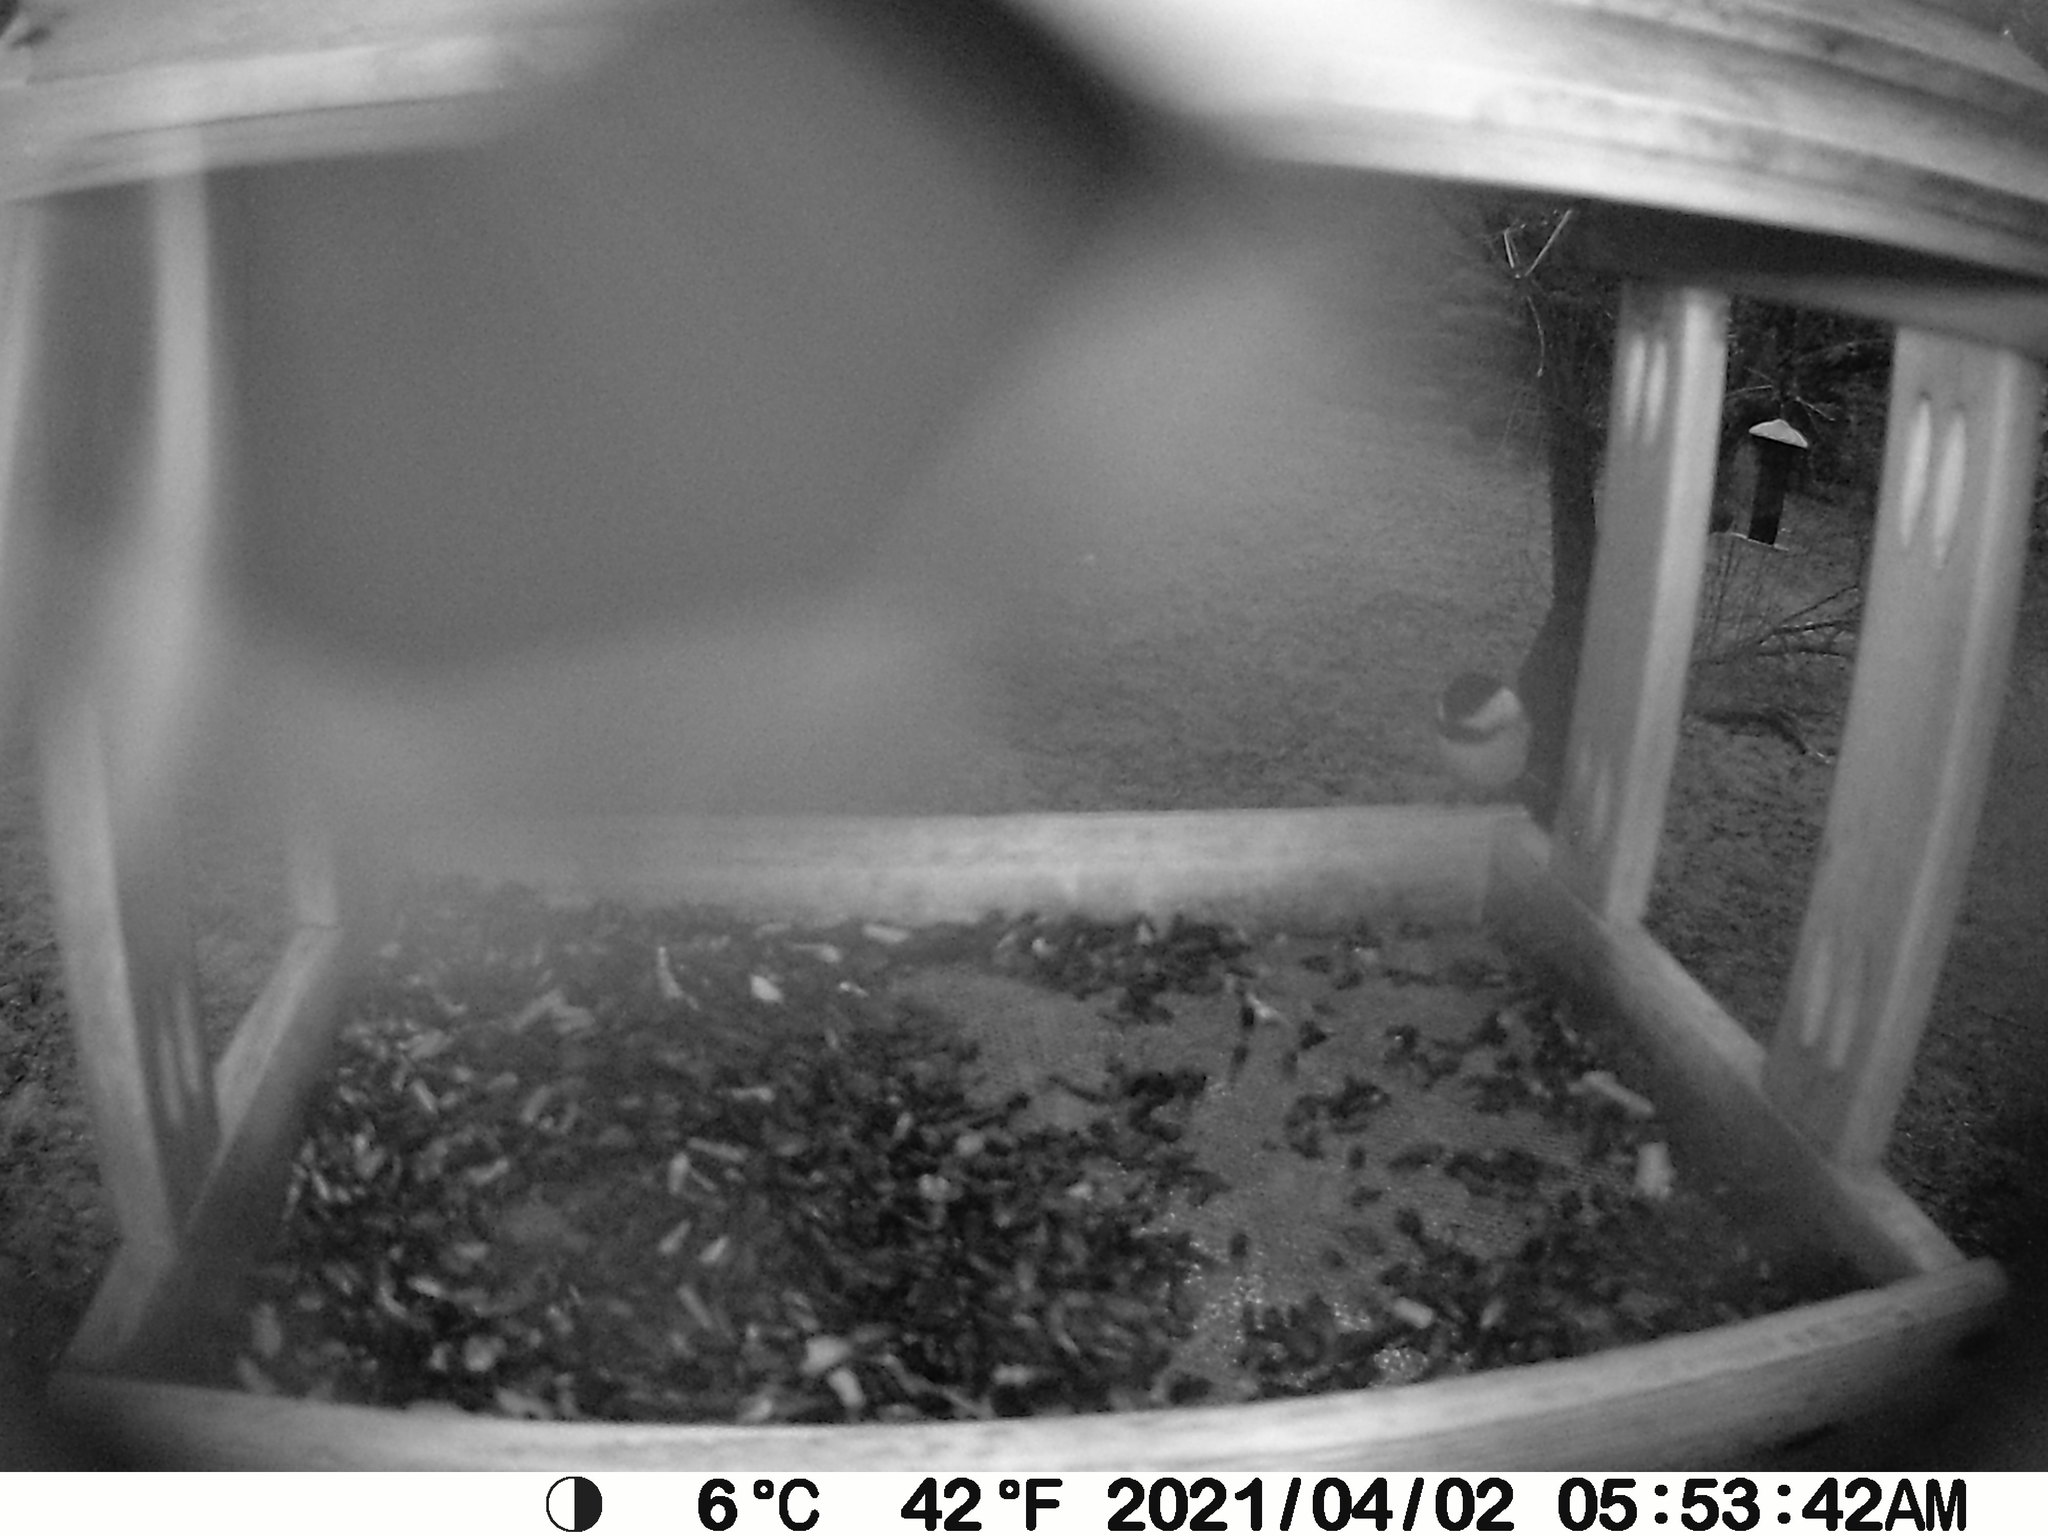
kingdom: Animalia
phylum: Chordata
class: Aves
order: Passeriformes
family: Paridae
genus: Poecile
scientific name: Poecile atricapillus
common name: Black-capped chickadee
